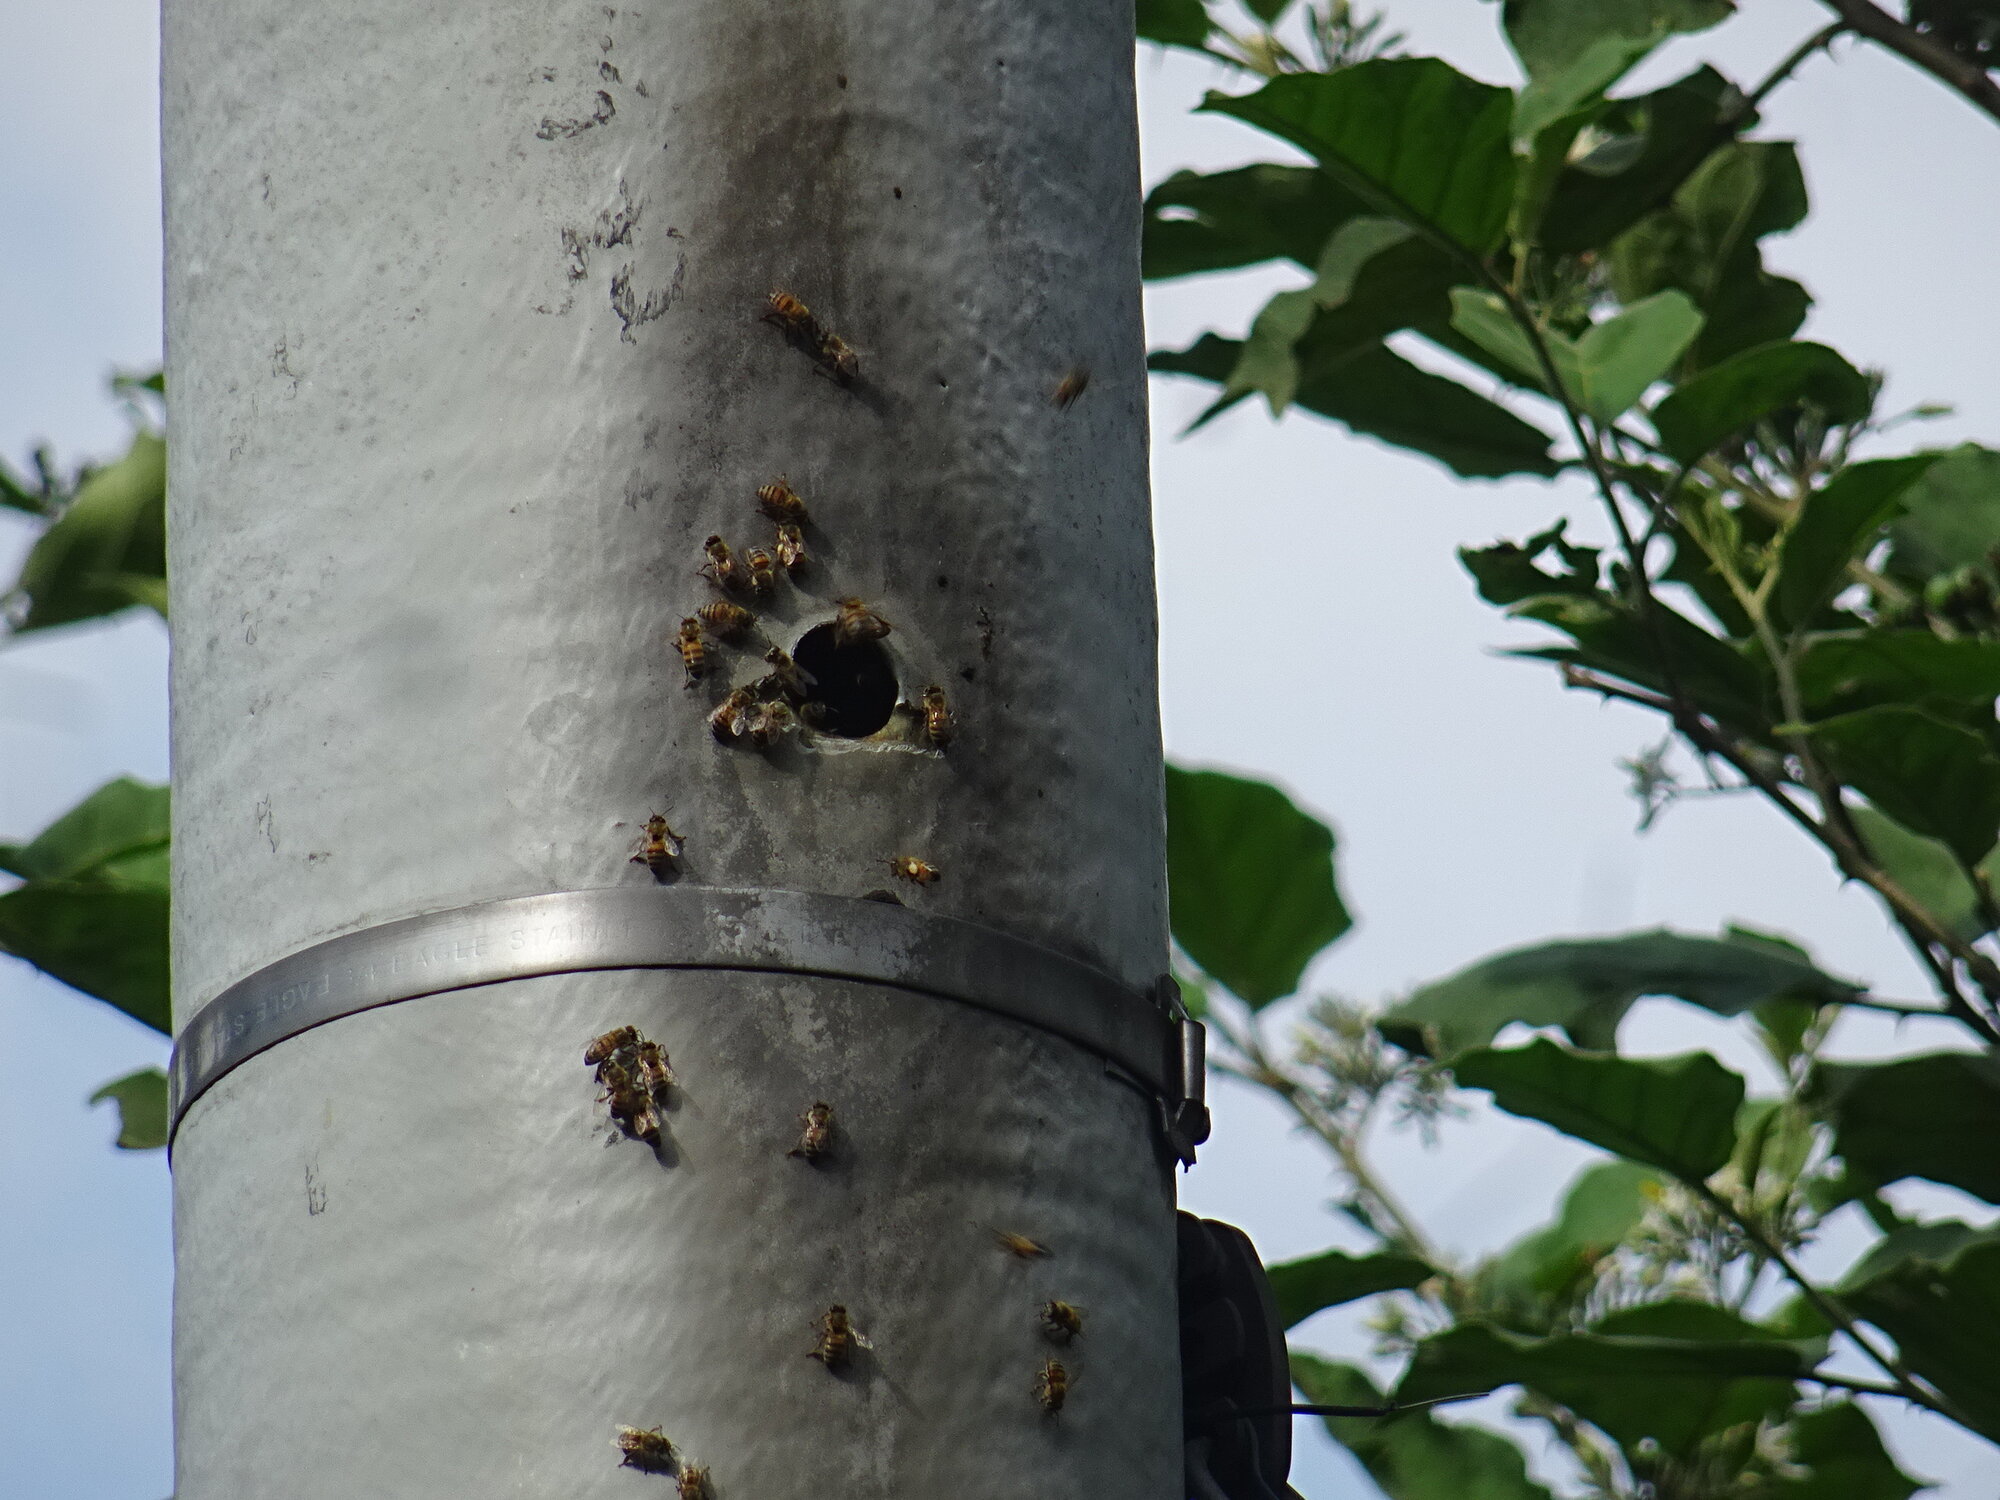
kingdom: Animalia
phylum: Arthropoda
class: Insecta
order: Hymenoptera
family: Apidae
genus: Apis
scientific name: Apis mellifera
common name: Honey bee
